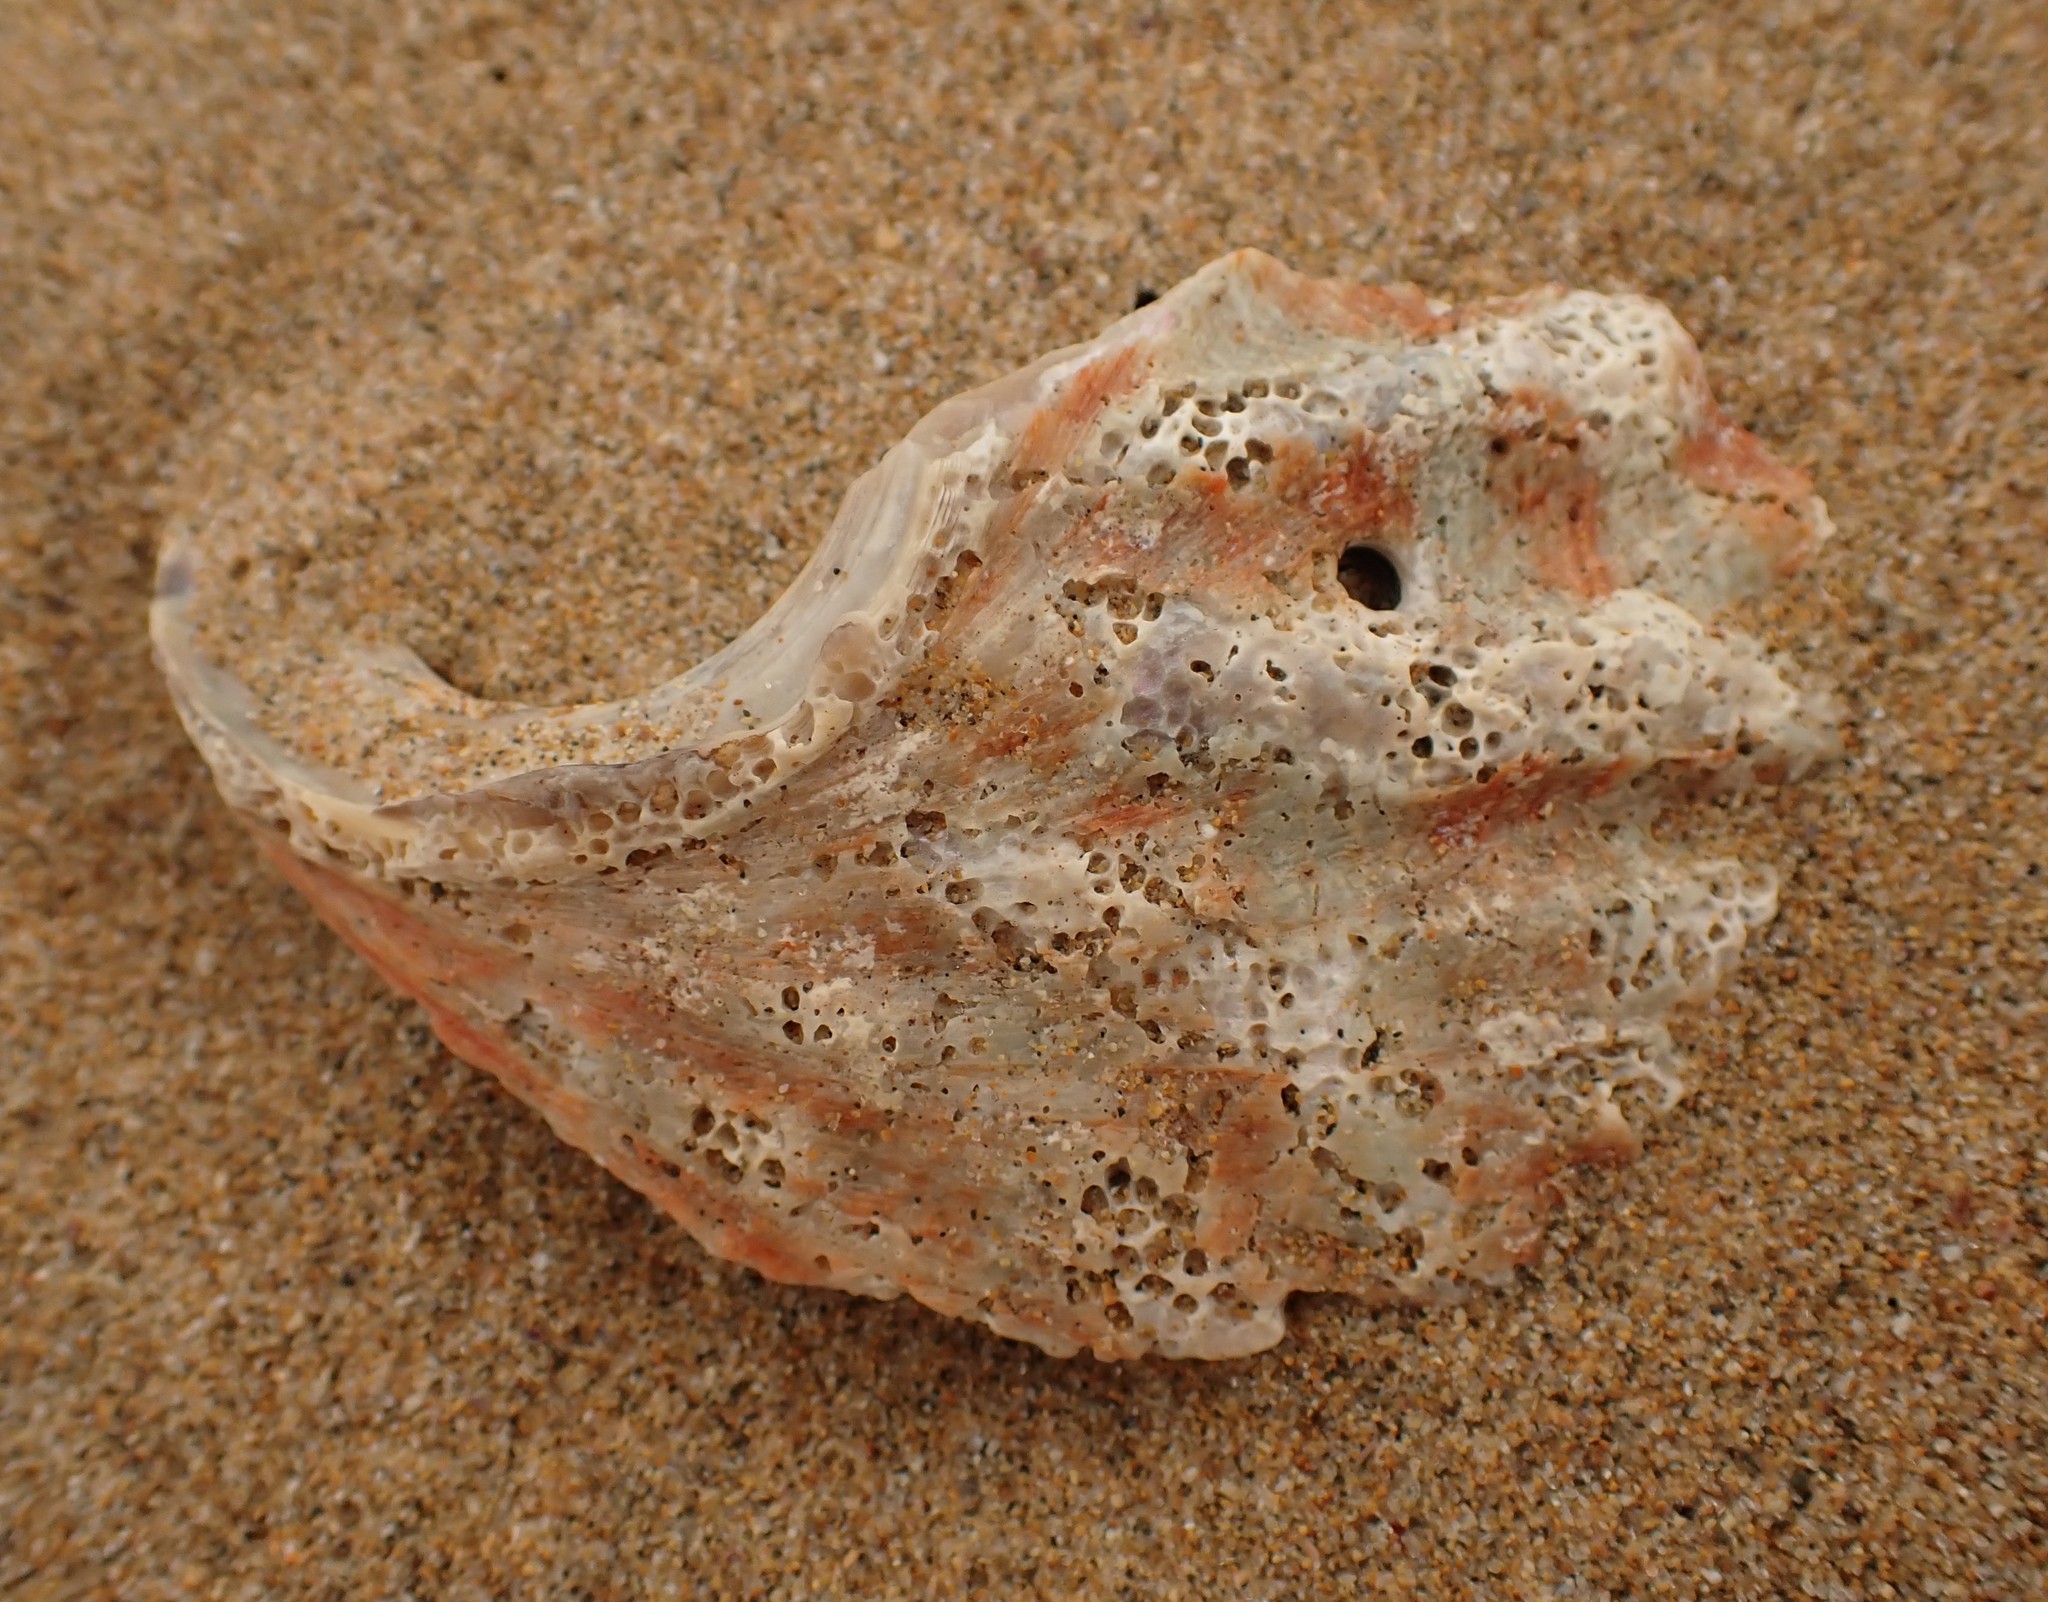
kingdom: Animalia
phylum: Mollusca
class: Gastropoda
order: Lepetellida
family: Haliotidae
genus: Haliotis
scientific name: Haliotis rubra
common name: Blacklip abalone
